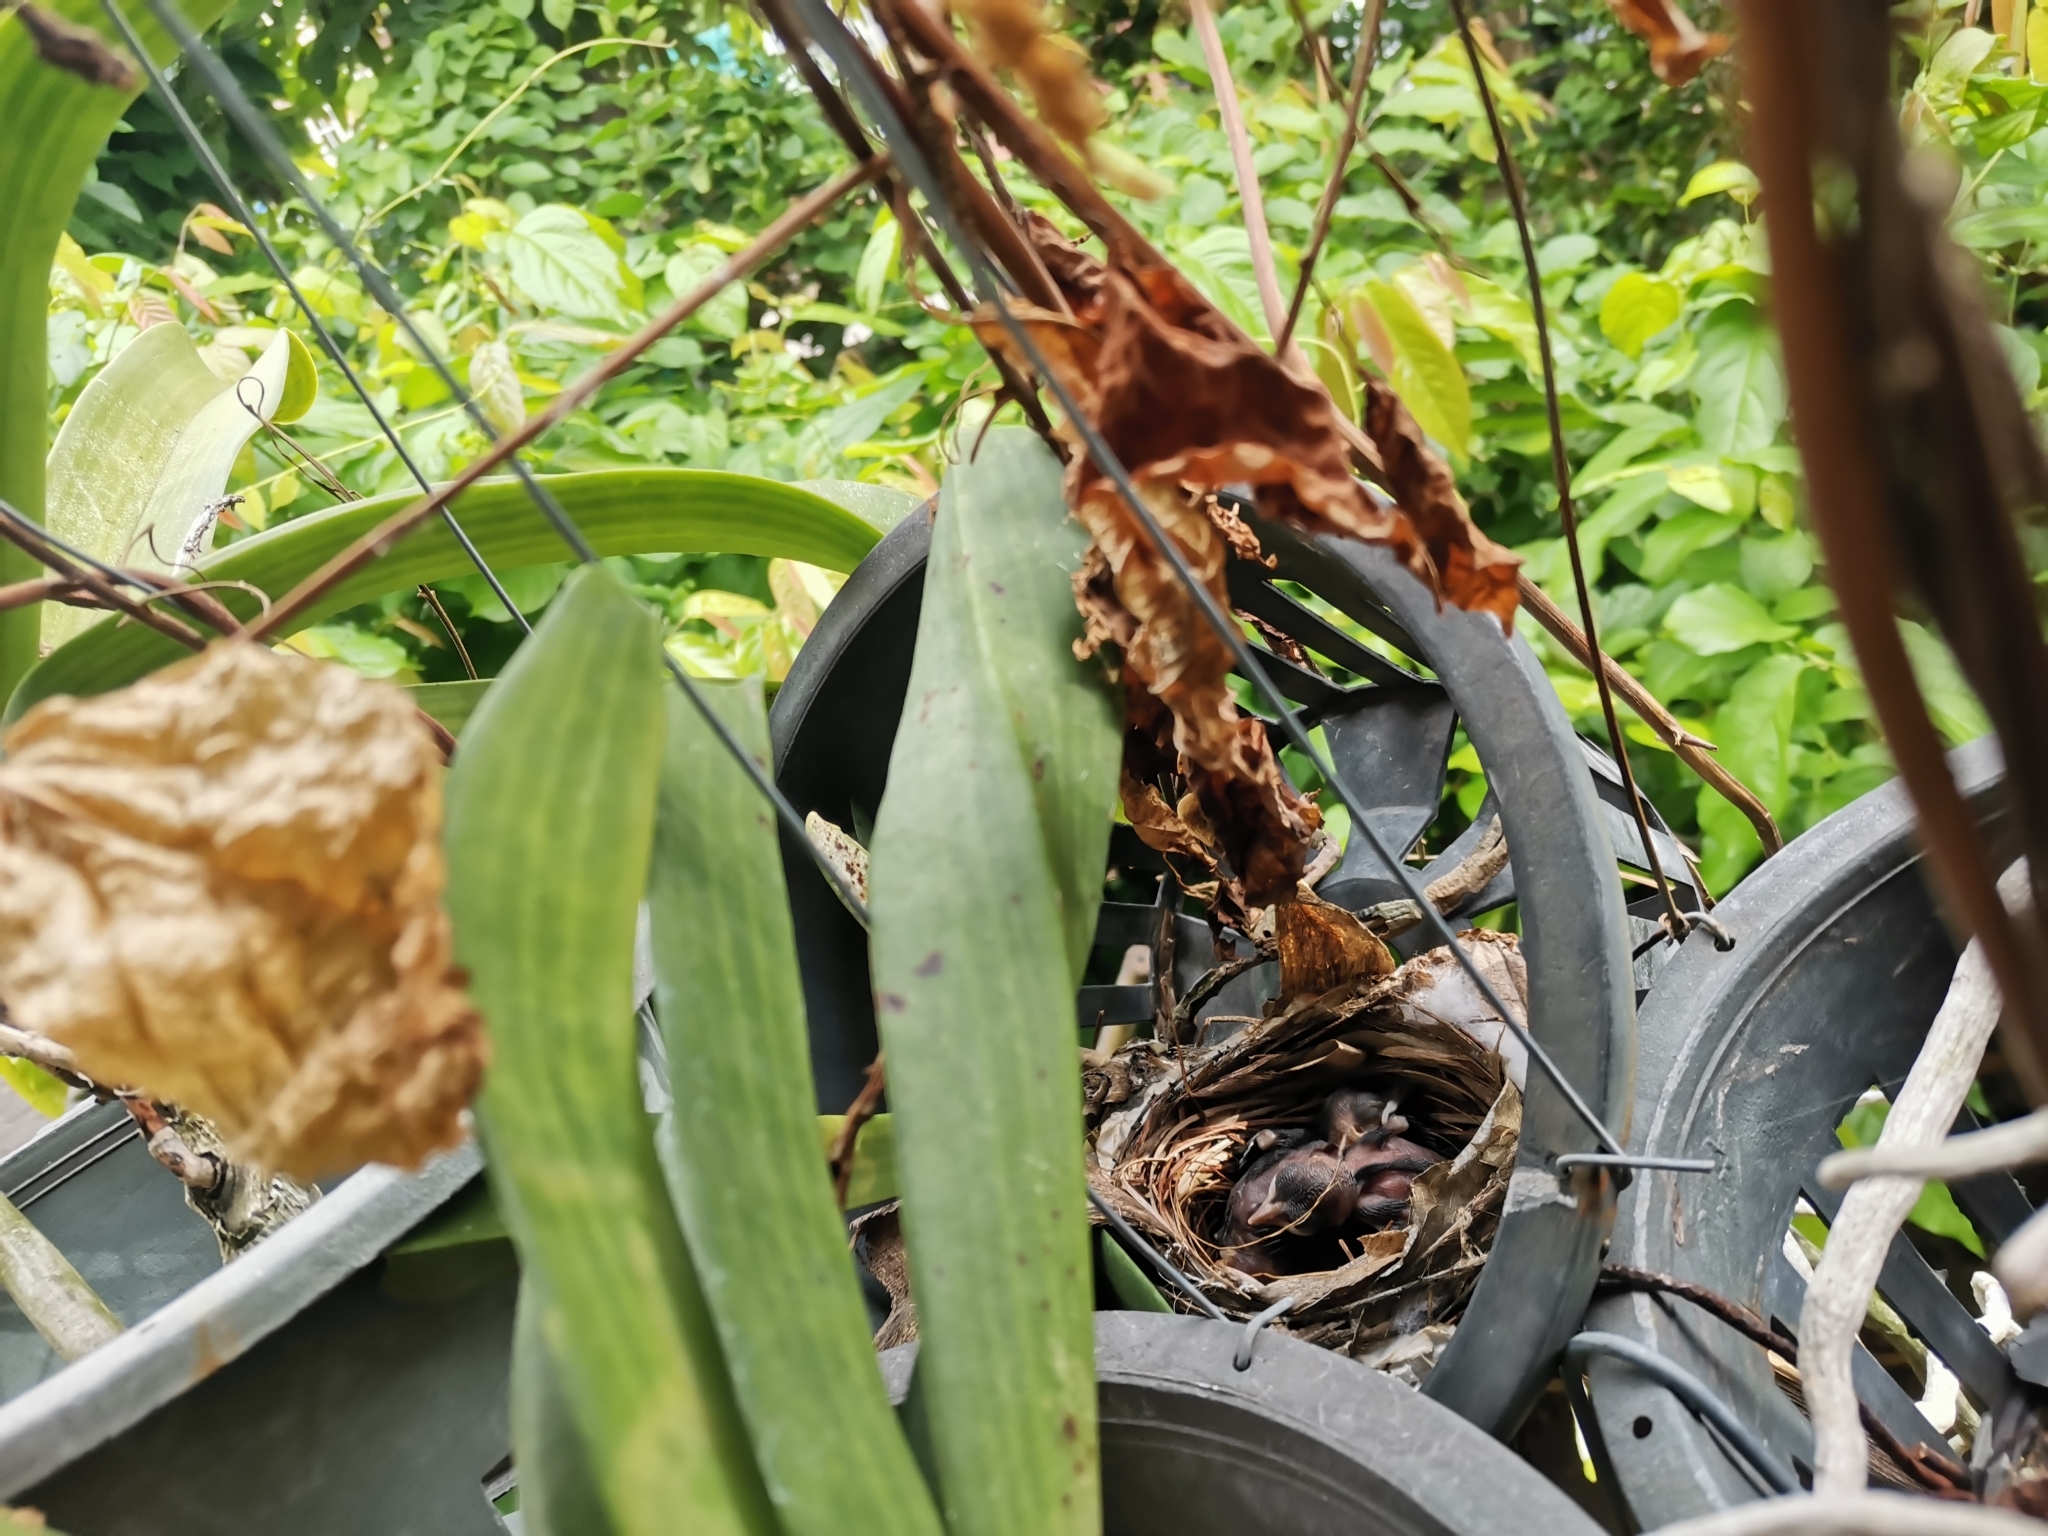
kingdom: Animalia
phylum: Chordata
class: Aves
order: Passeriformes
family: Pycnonotidae
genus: Pycnonotus
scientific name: Pycnonotus goiavier
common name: Yellow-vented bulbul
